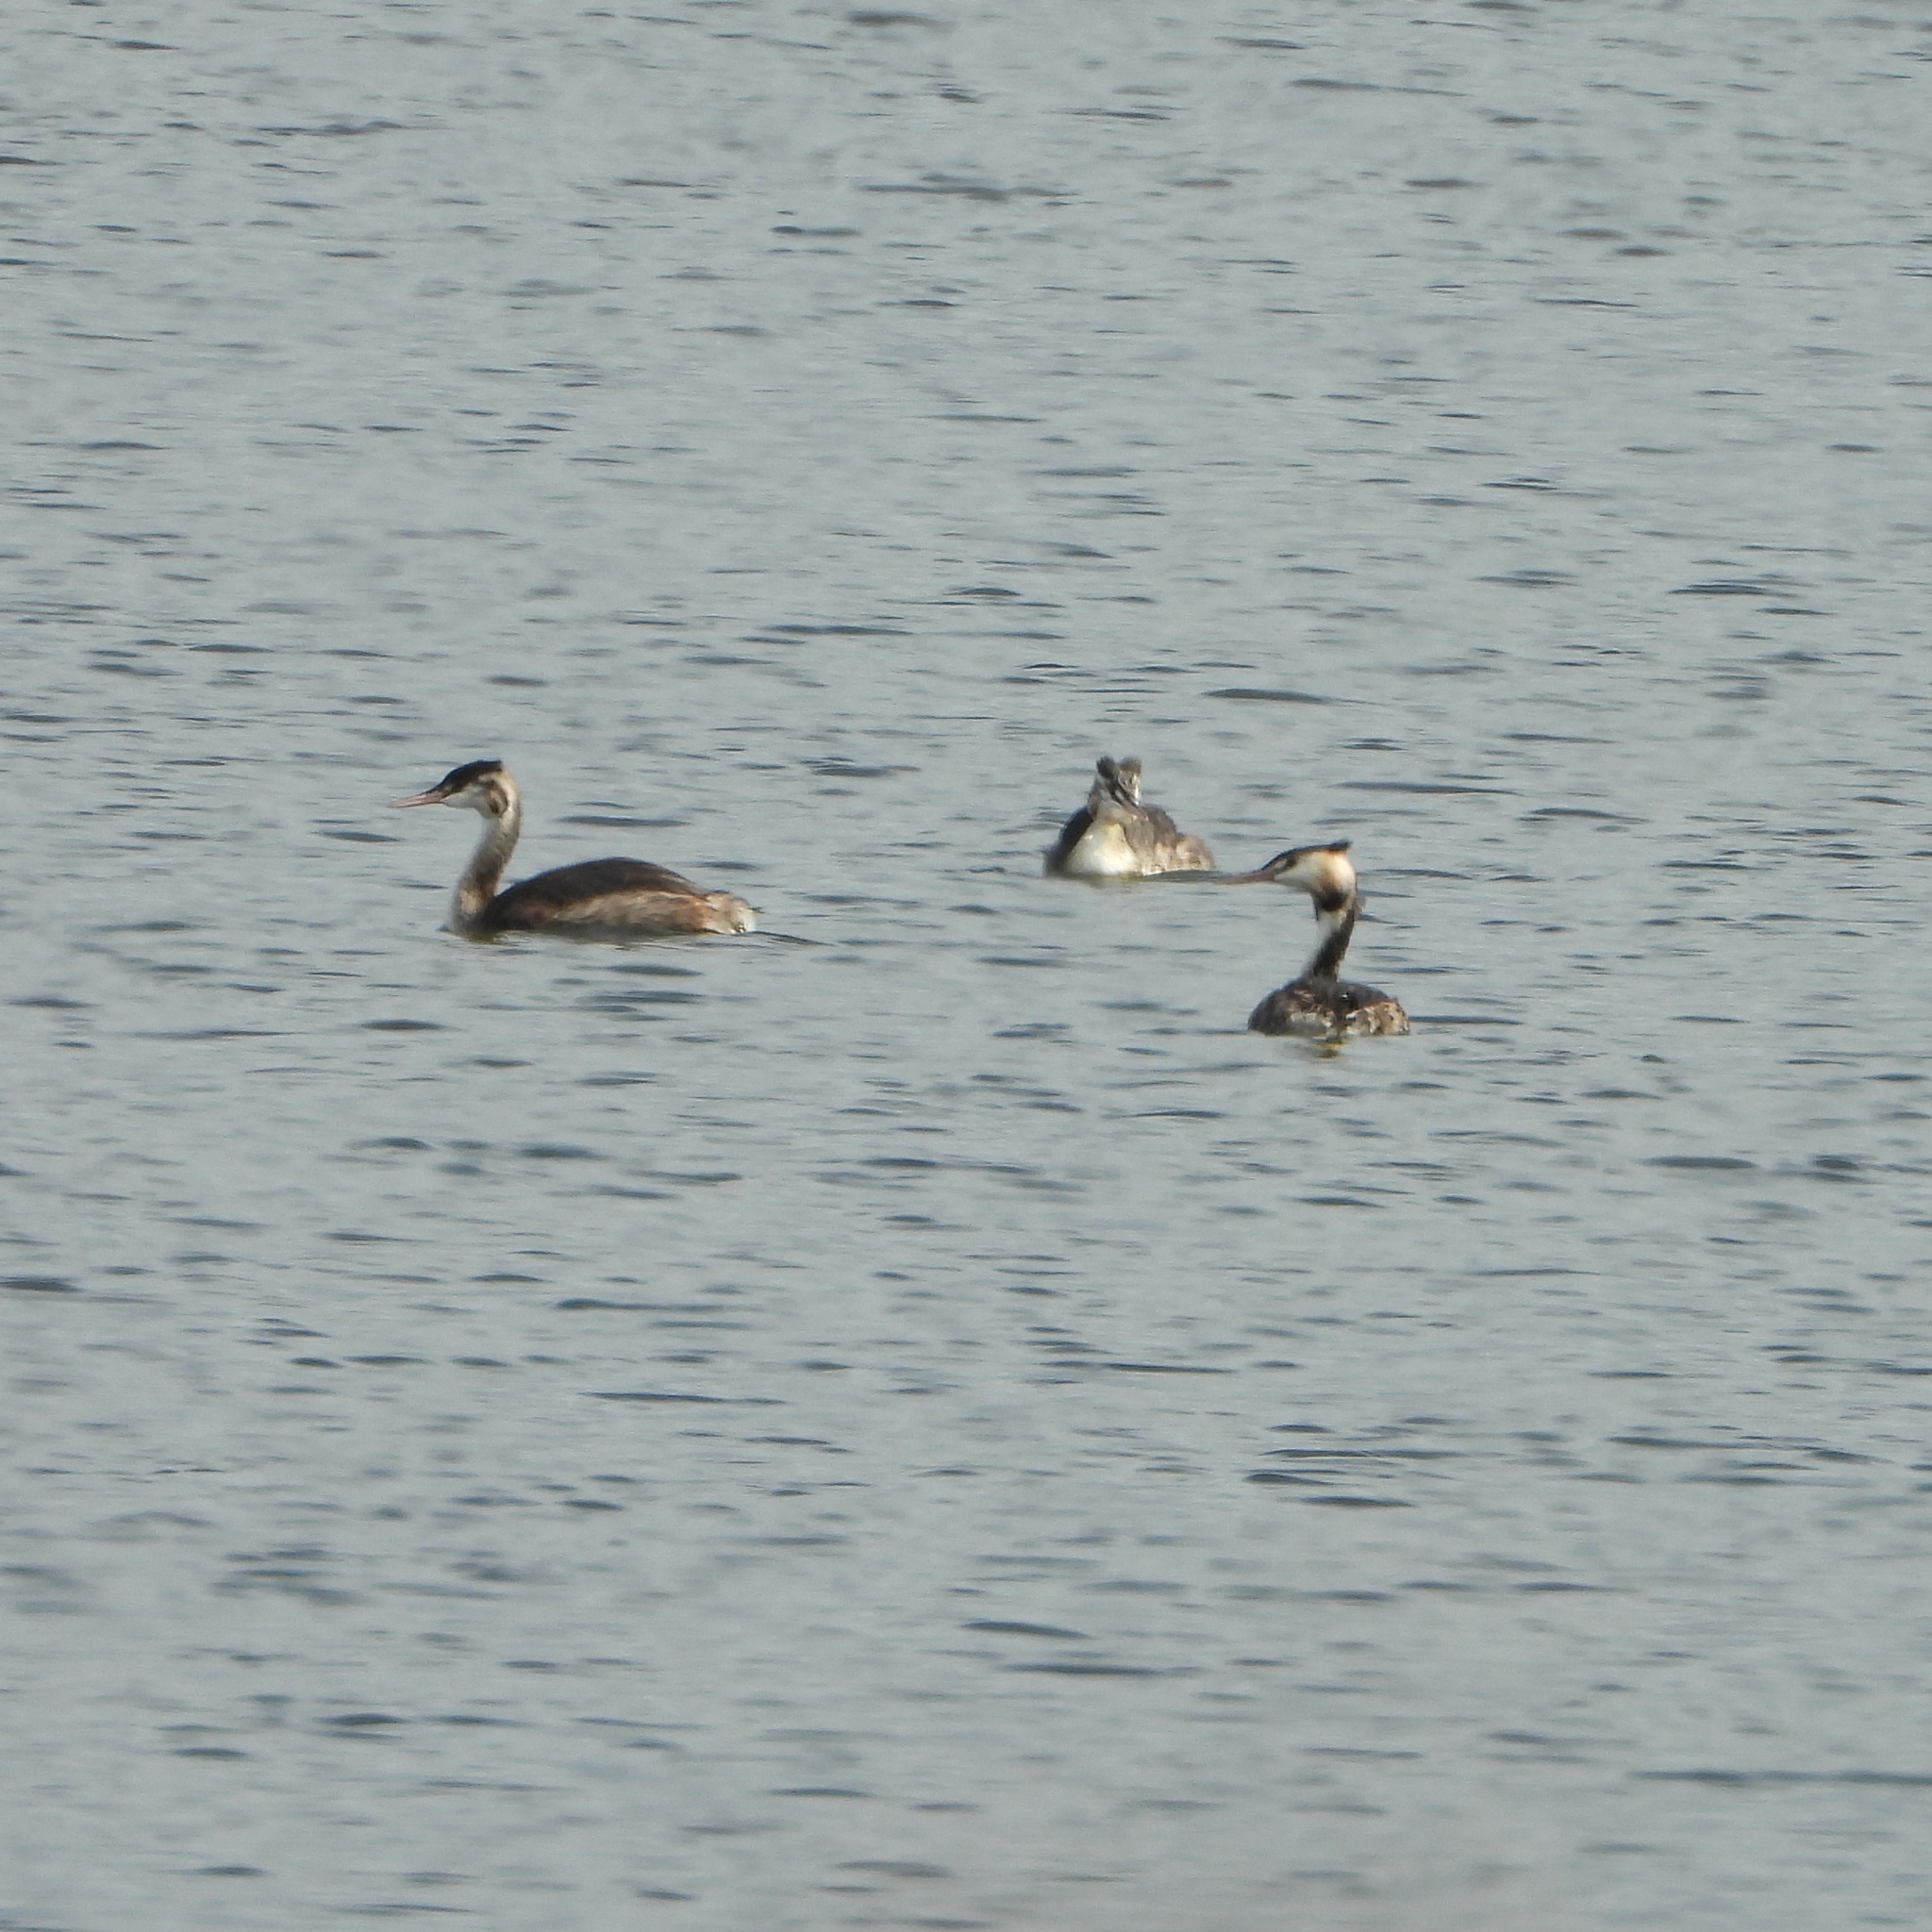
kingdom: Animalia
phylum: Chordata
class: Aves
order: Podicipediformes
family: Podicipedidae
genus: Podiceps
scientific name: Podiceps cristatus
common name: Great crested grebe
